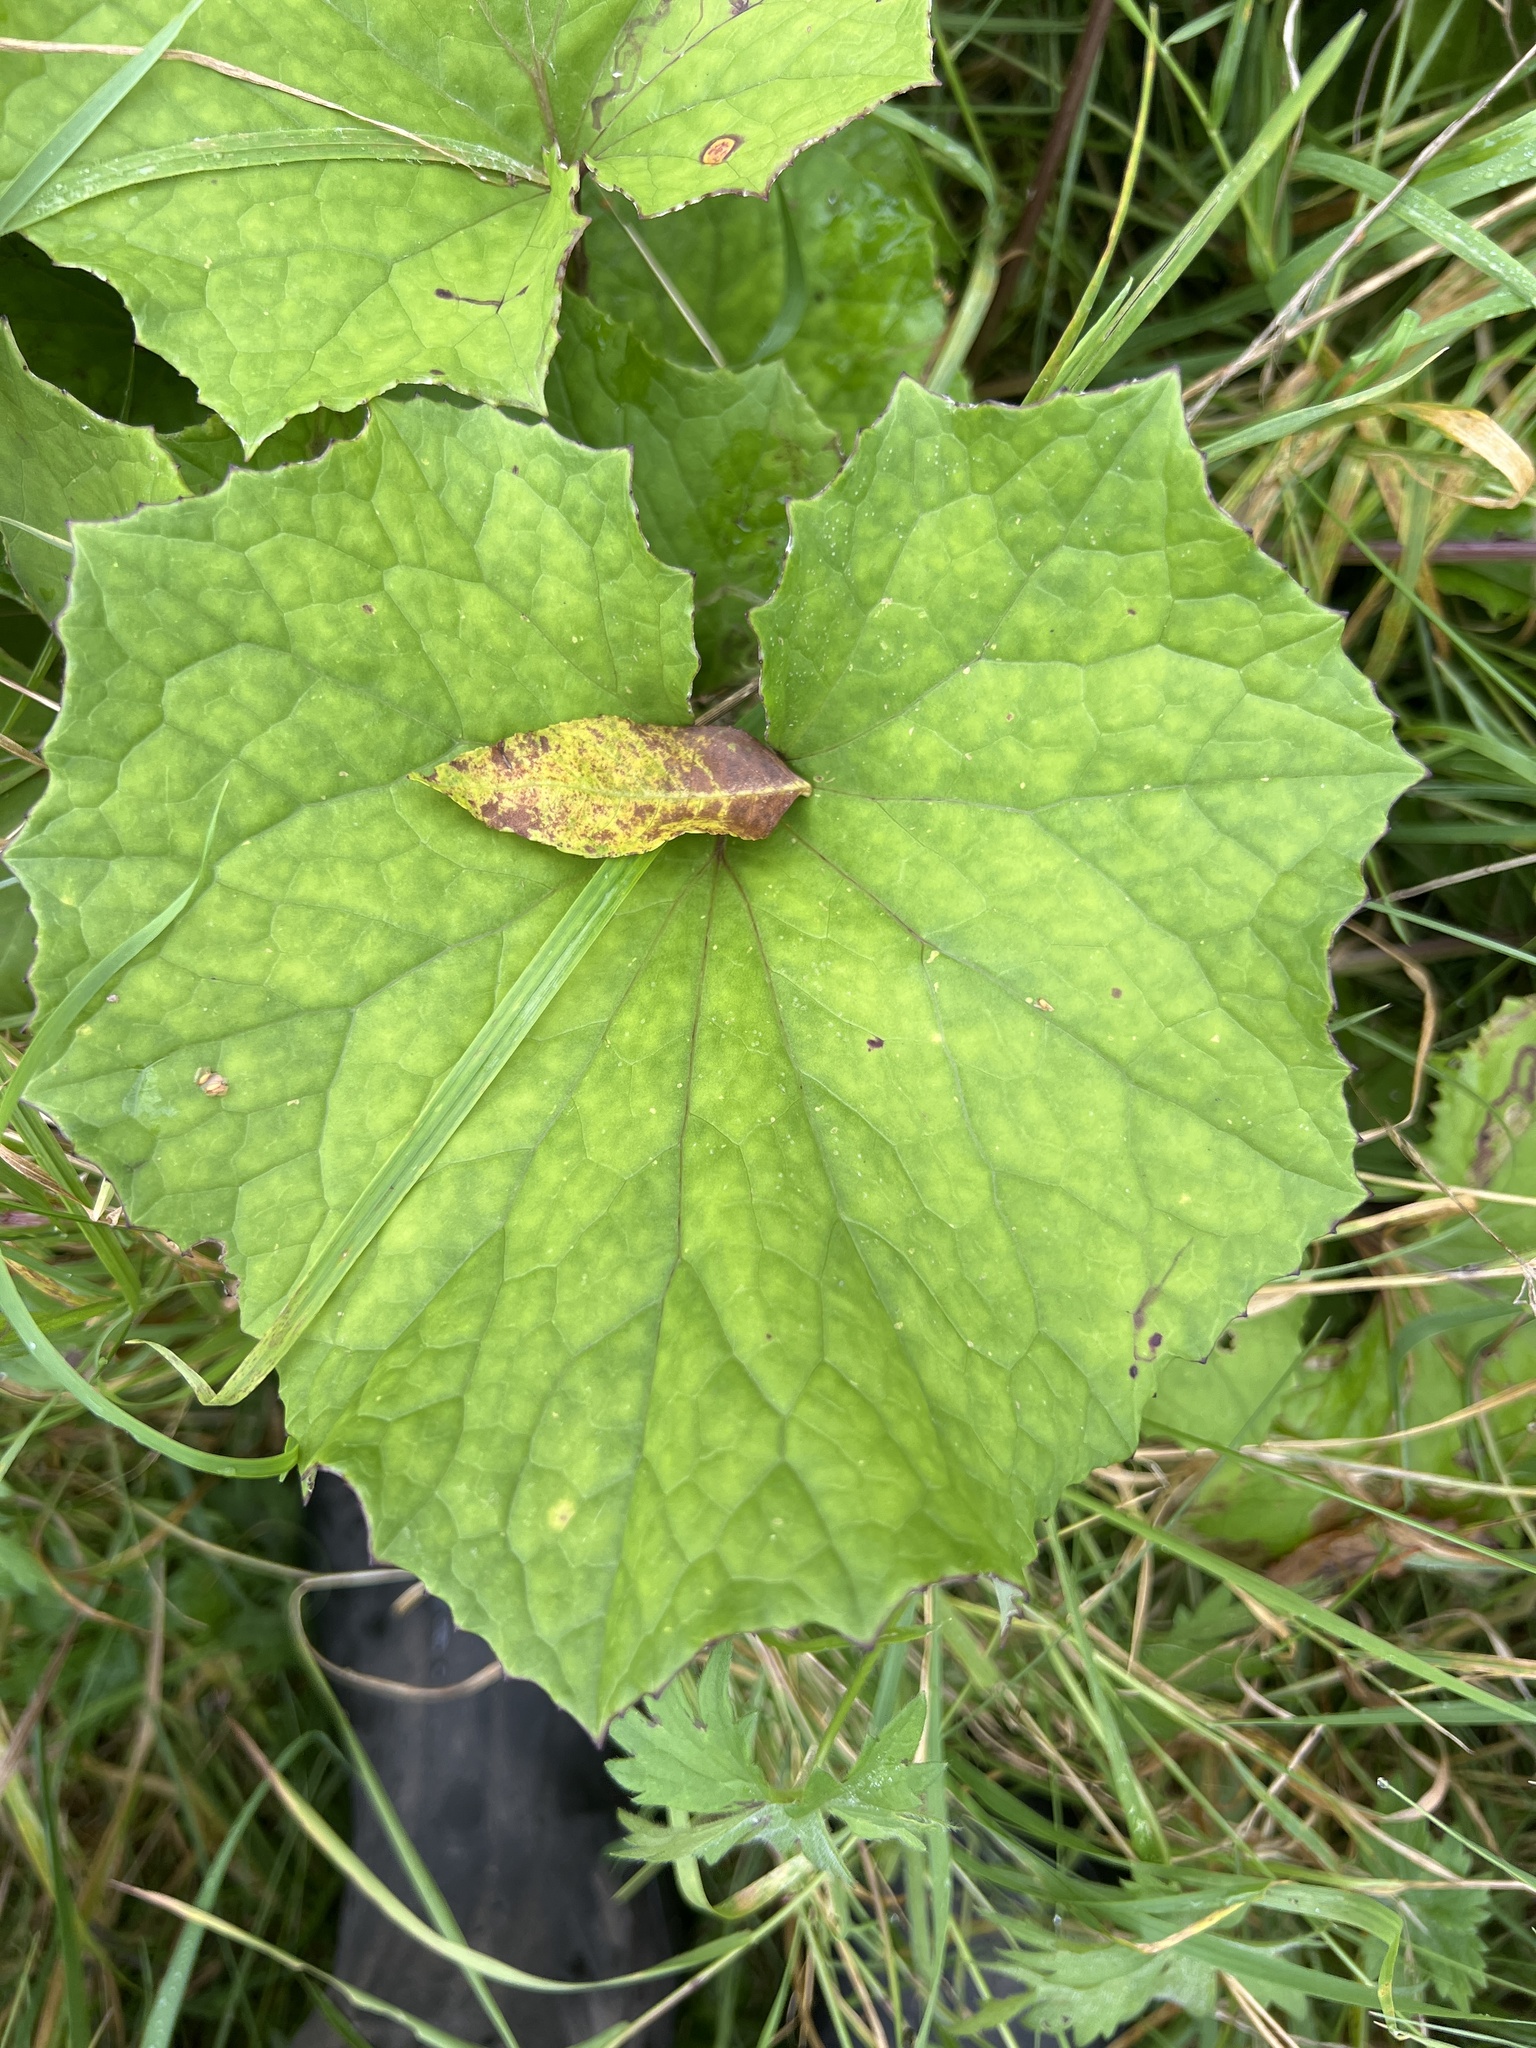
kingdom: Plantae
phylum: Tracheophyta
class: Magnoliopsida
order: Asterales
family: Asteraceae
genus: Tussilago
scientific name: Tussilago farfara
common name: Coltsfoot
